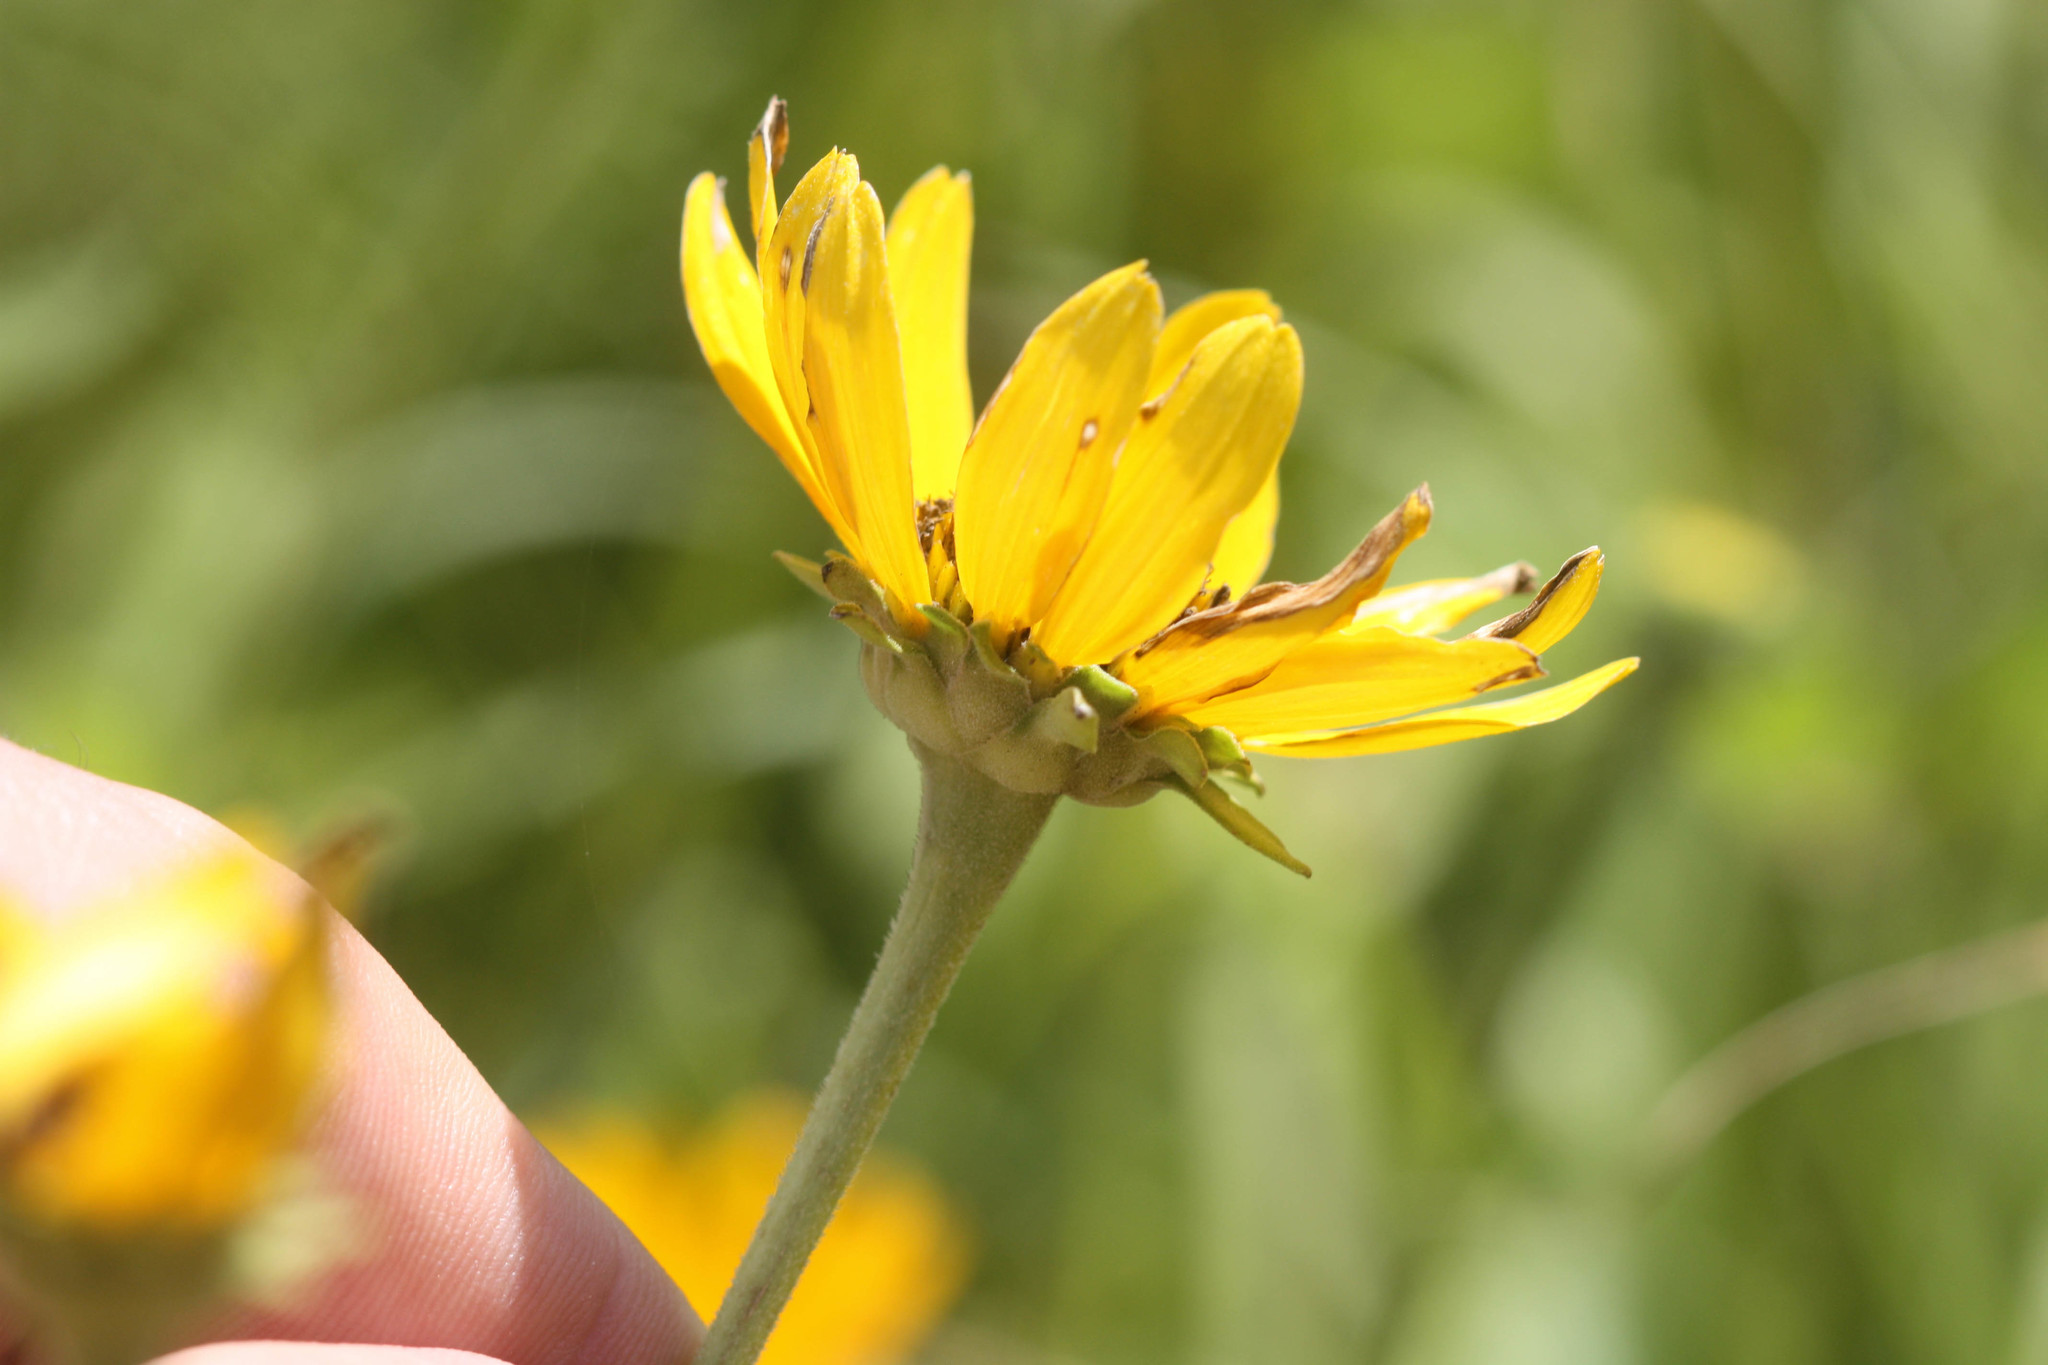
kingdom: Plantae
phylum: Tracheophyta
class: Magnoliopsida
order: Asterales
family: Asteraceae
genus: Heliopsis
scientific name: Heliopsis helianthoides
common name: False sunflower
